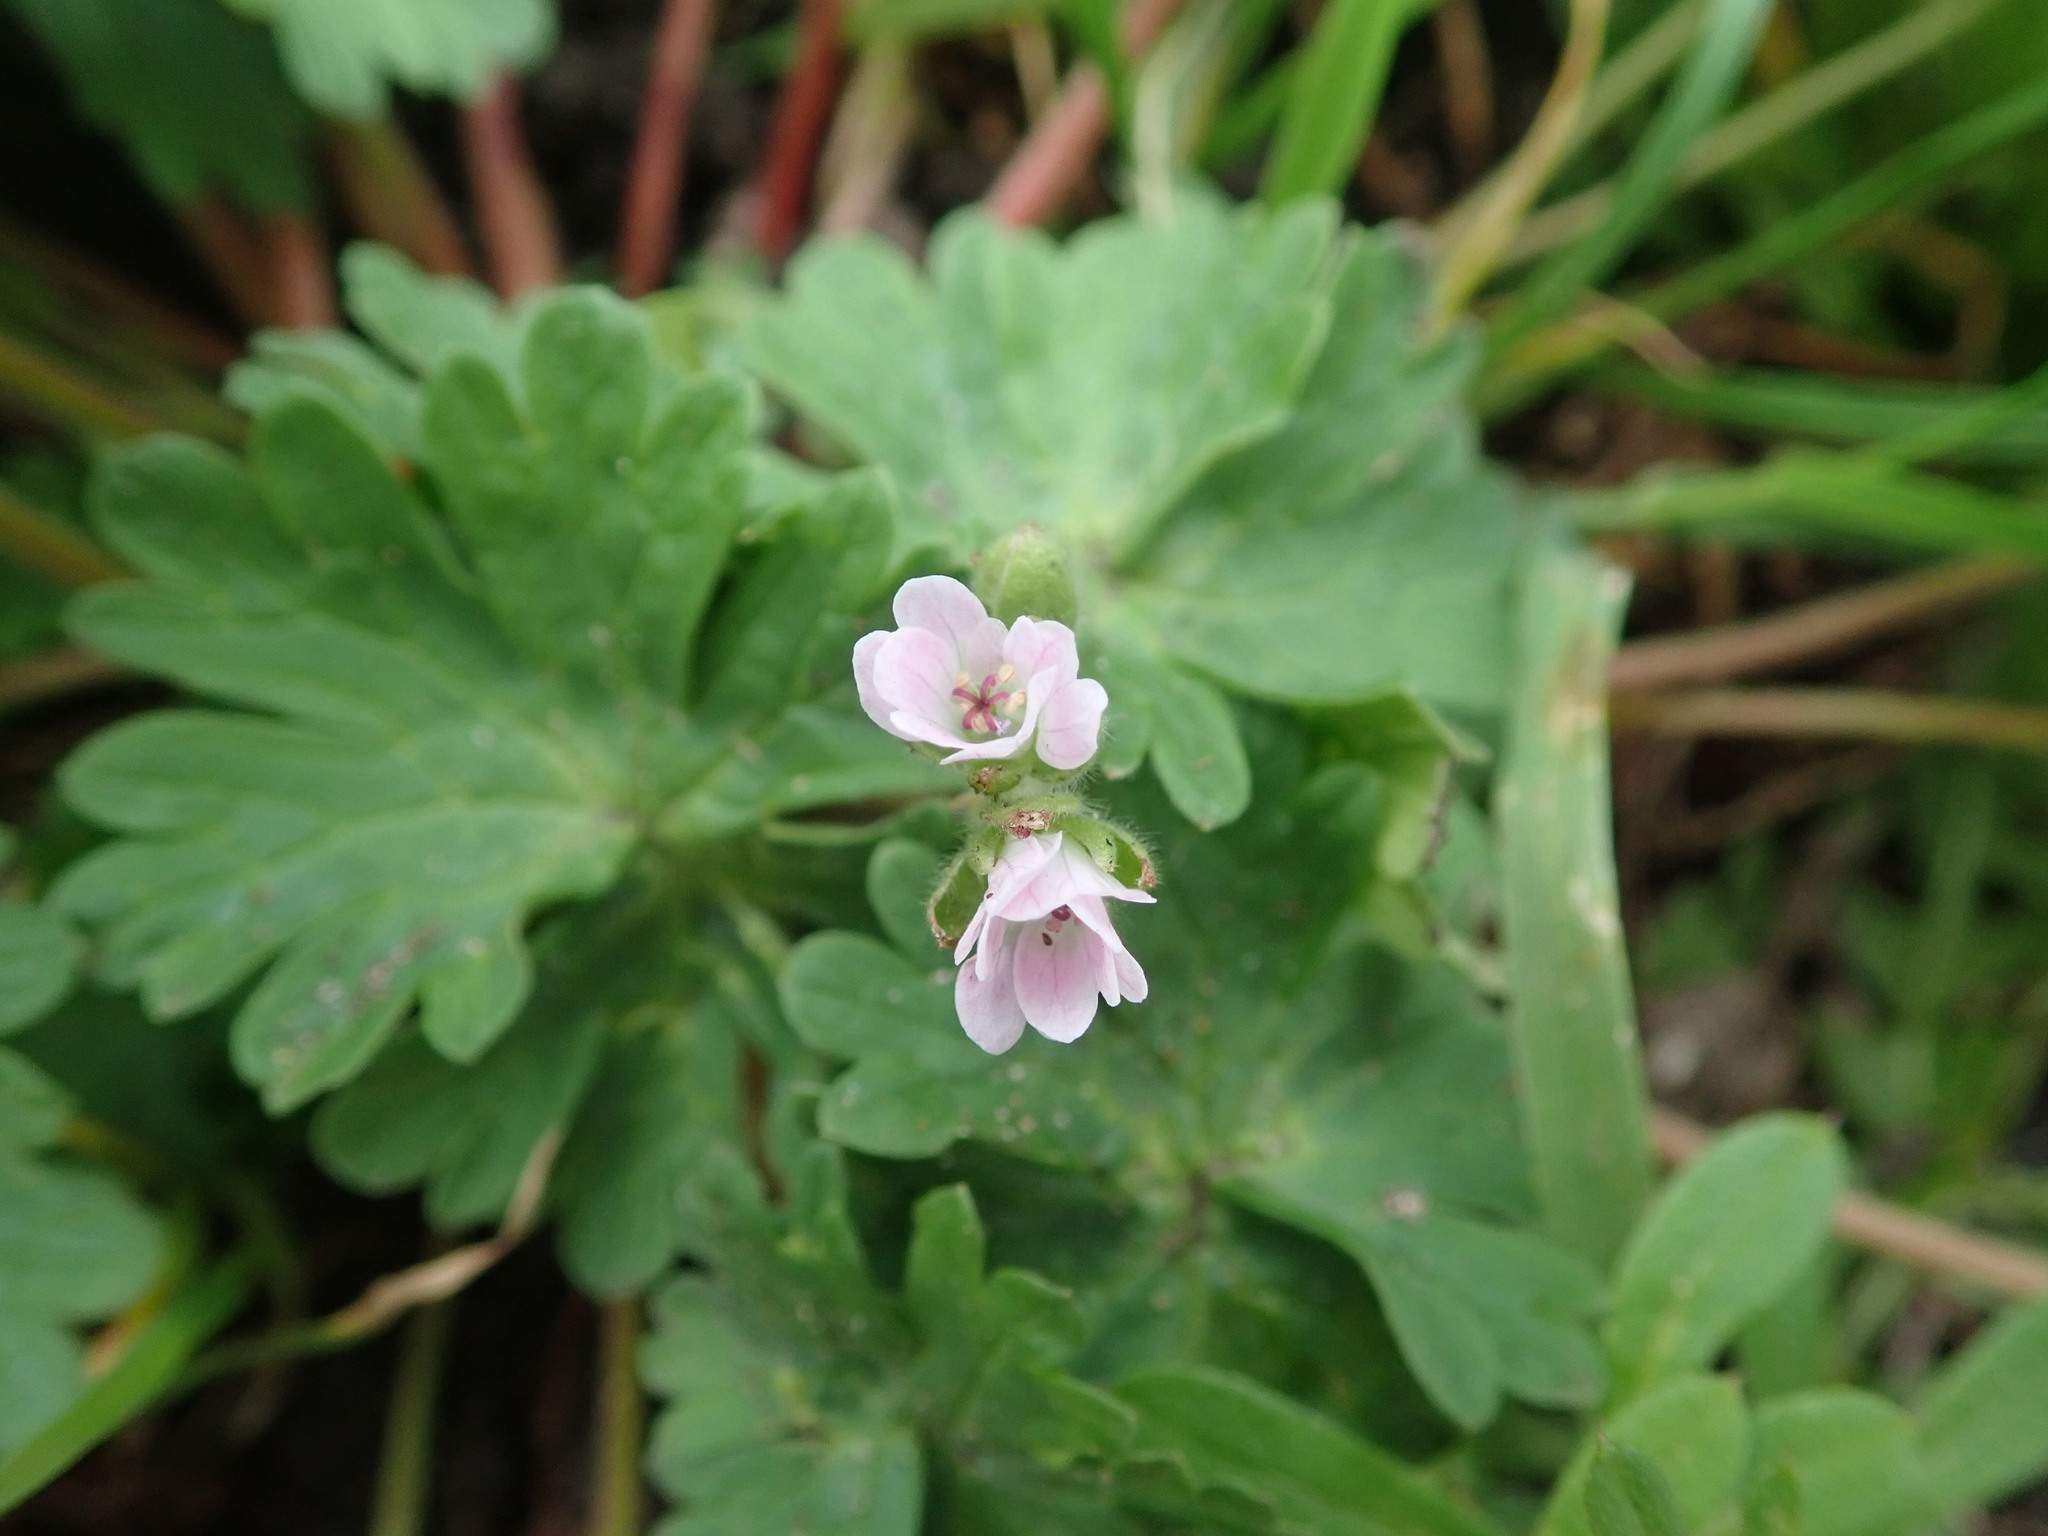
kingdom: Plantae
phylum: Tracheophyta
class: Magnoliopsida
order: Geraniales
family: Geraniaceae
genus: Geranium
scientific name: Geranium molle
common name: Dove's-foot crane's-bill
